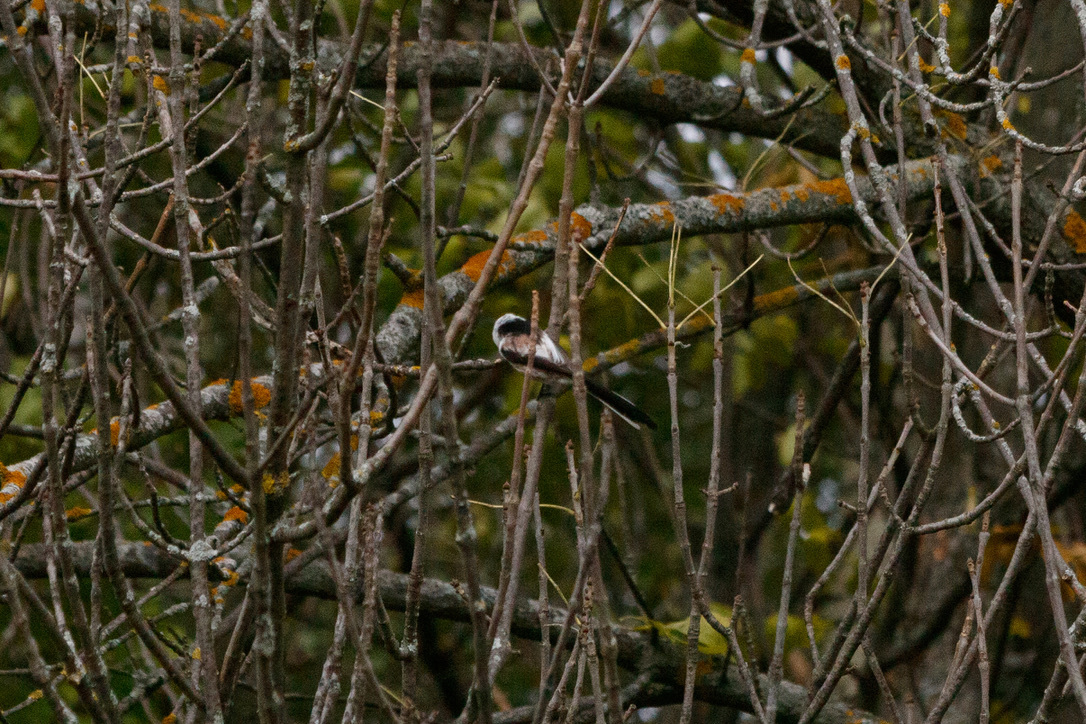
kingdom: Animalia
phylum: Chordata
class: Aves
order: Passeriformes
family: Aegithalidae
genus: Aegithalos
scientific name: Aegithalos caudatus
